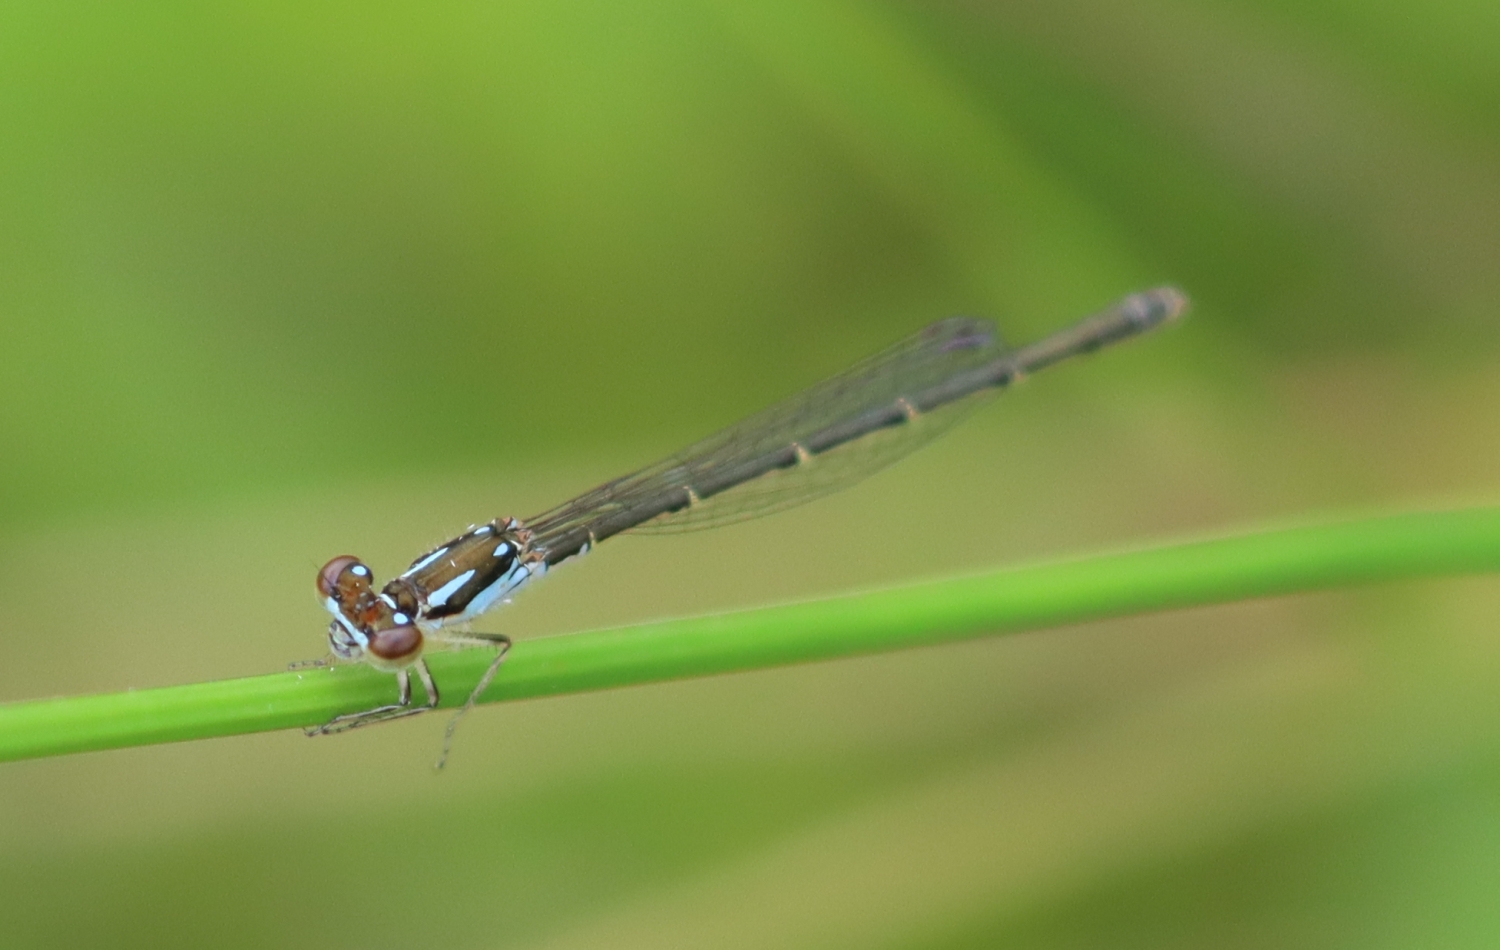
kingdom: Animalia
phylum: Arthropoda
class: Insecta
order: Odonata
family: Coenagrionidae
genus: Ischnura
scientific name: Ischnura posita
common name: Fragile forktail
